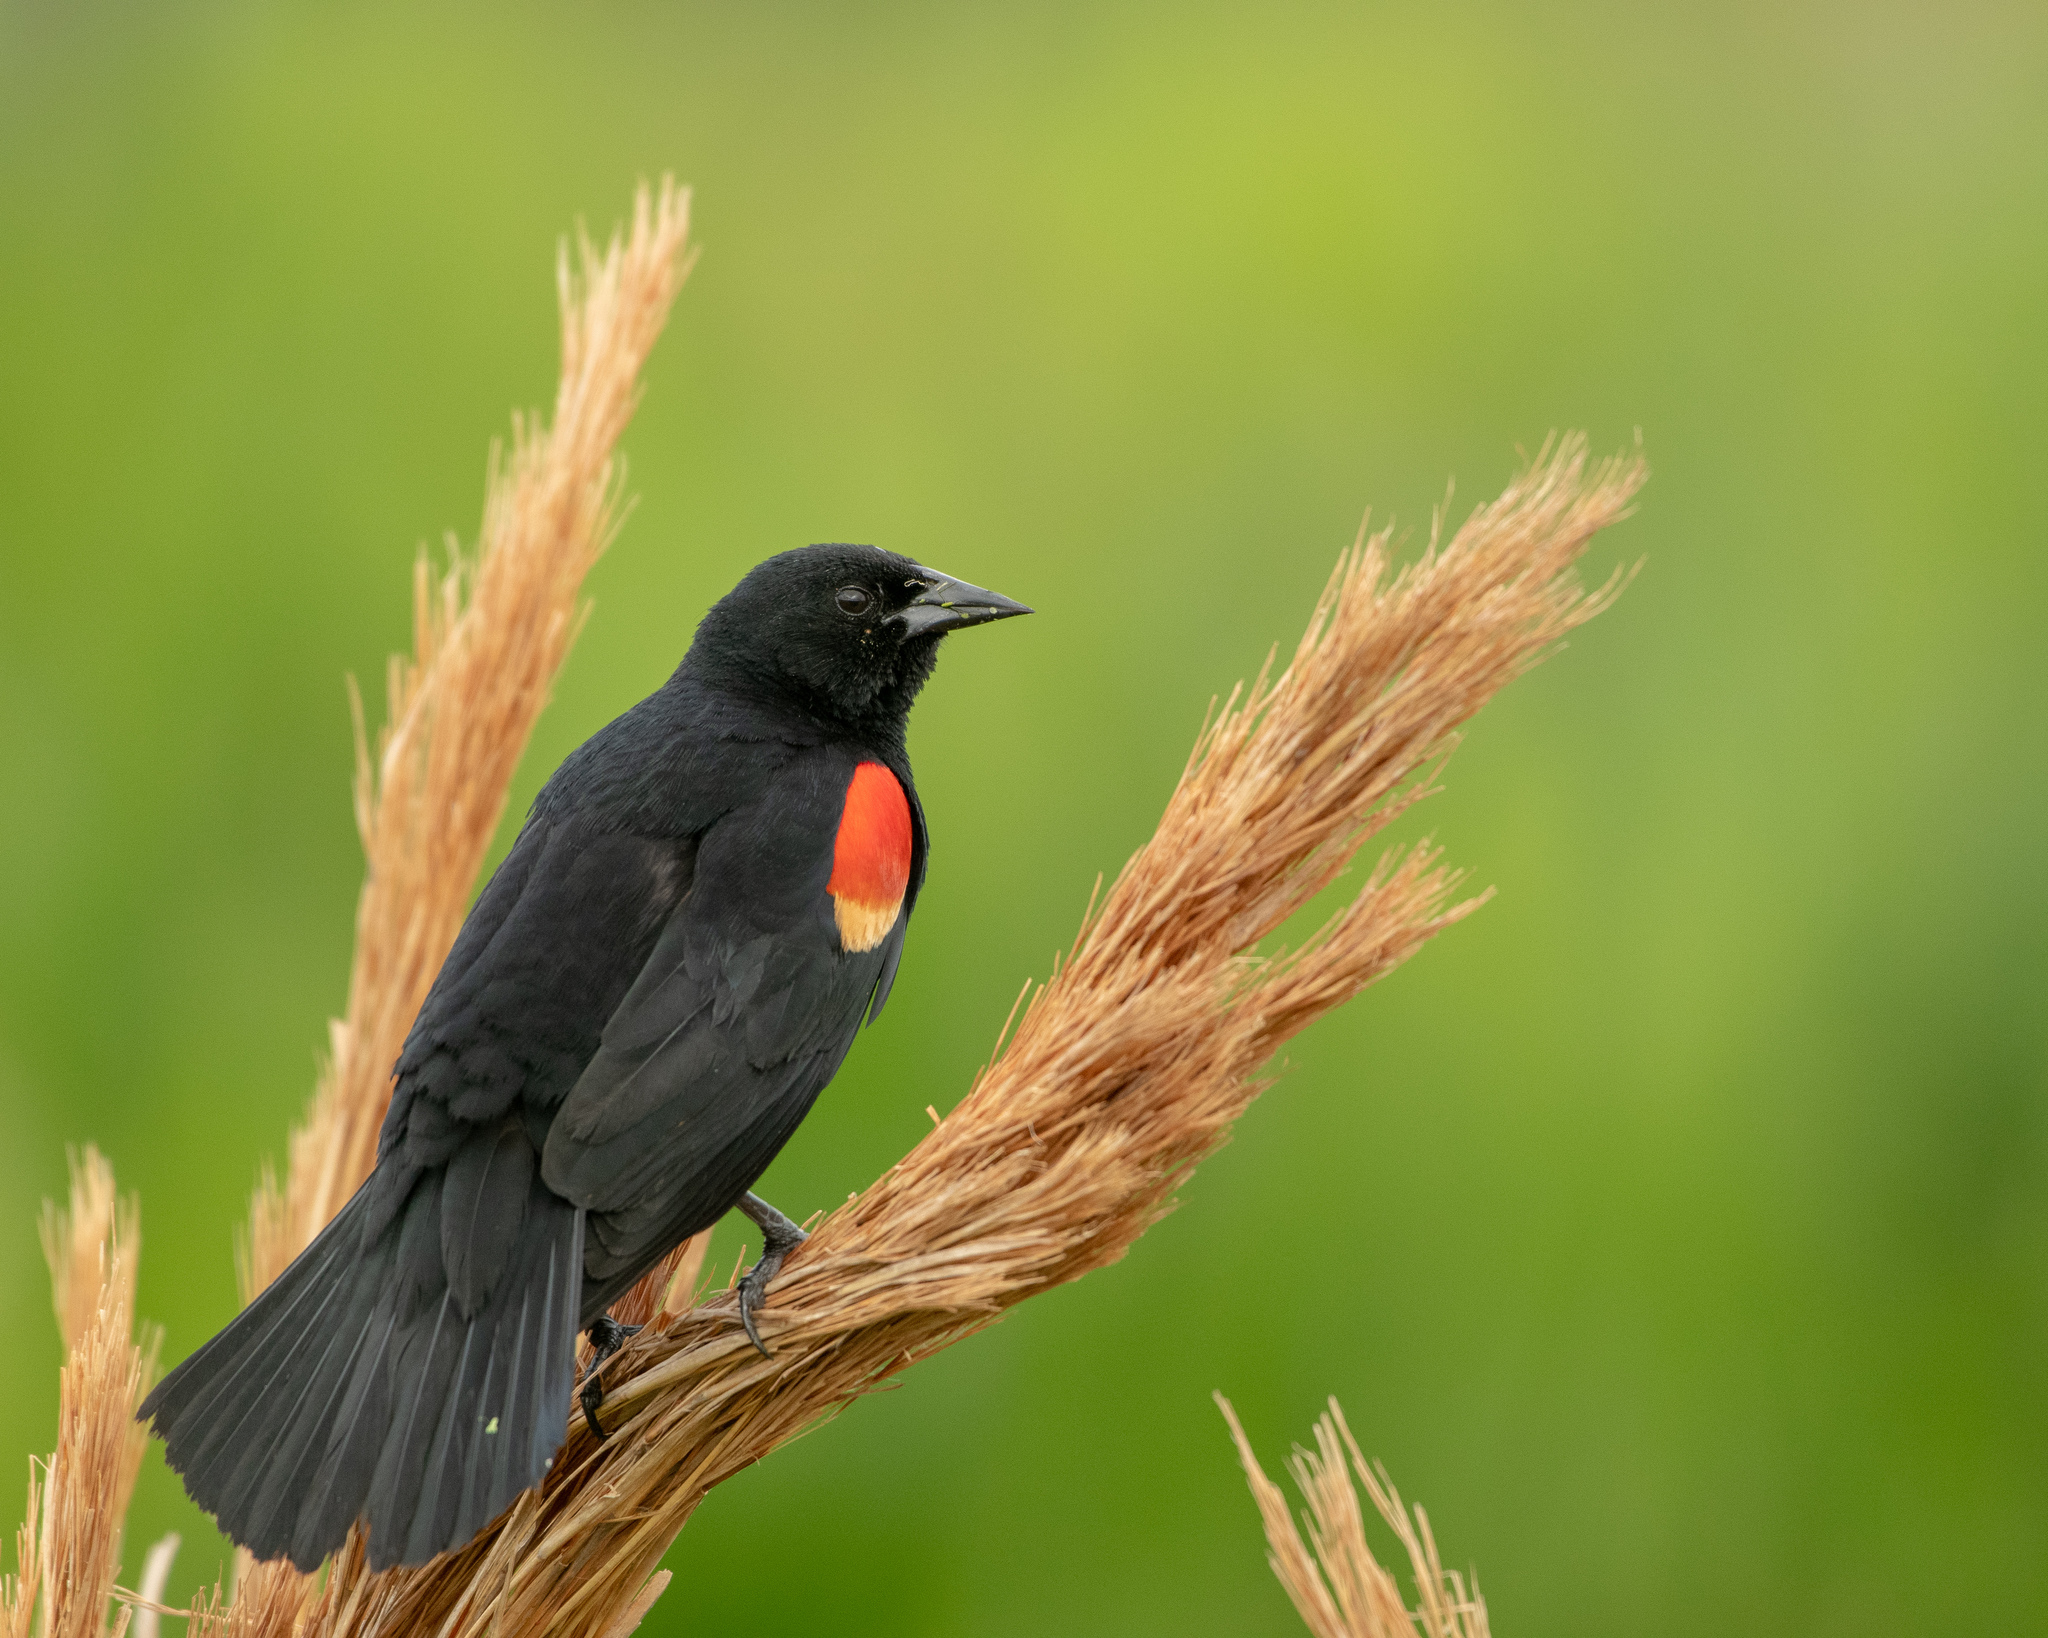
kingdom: Animalia
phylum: Chordata
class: Aves
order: Passeriformes
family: Icteridae
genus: Agelaius
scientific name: Agelaius phoeniceus
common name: Red-winged blackbird
